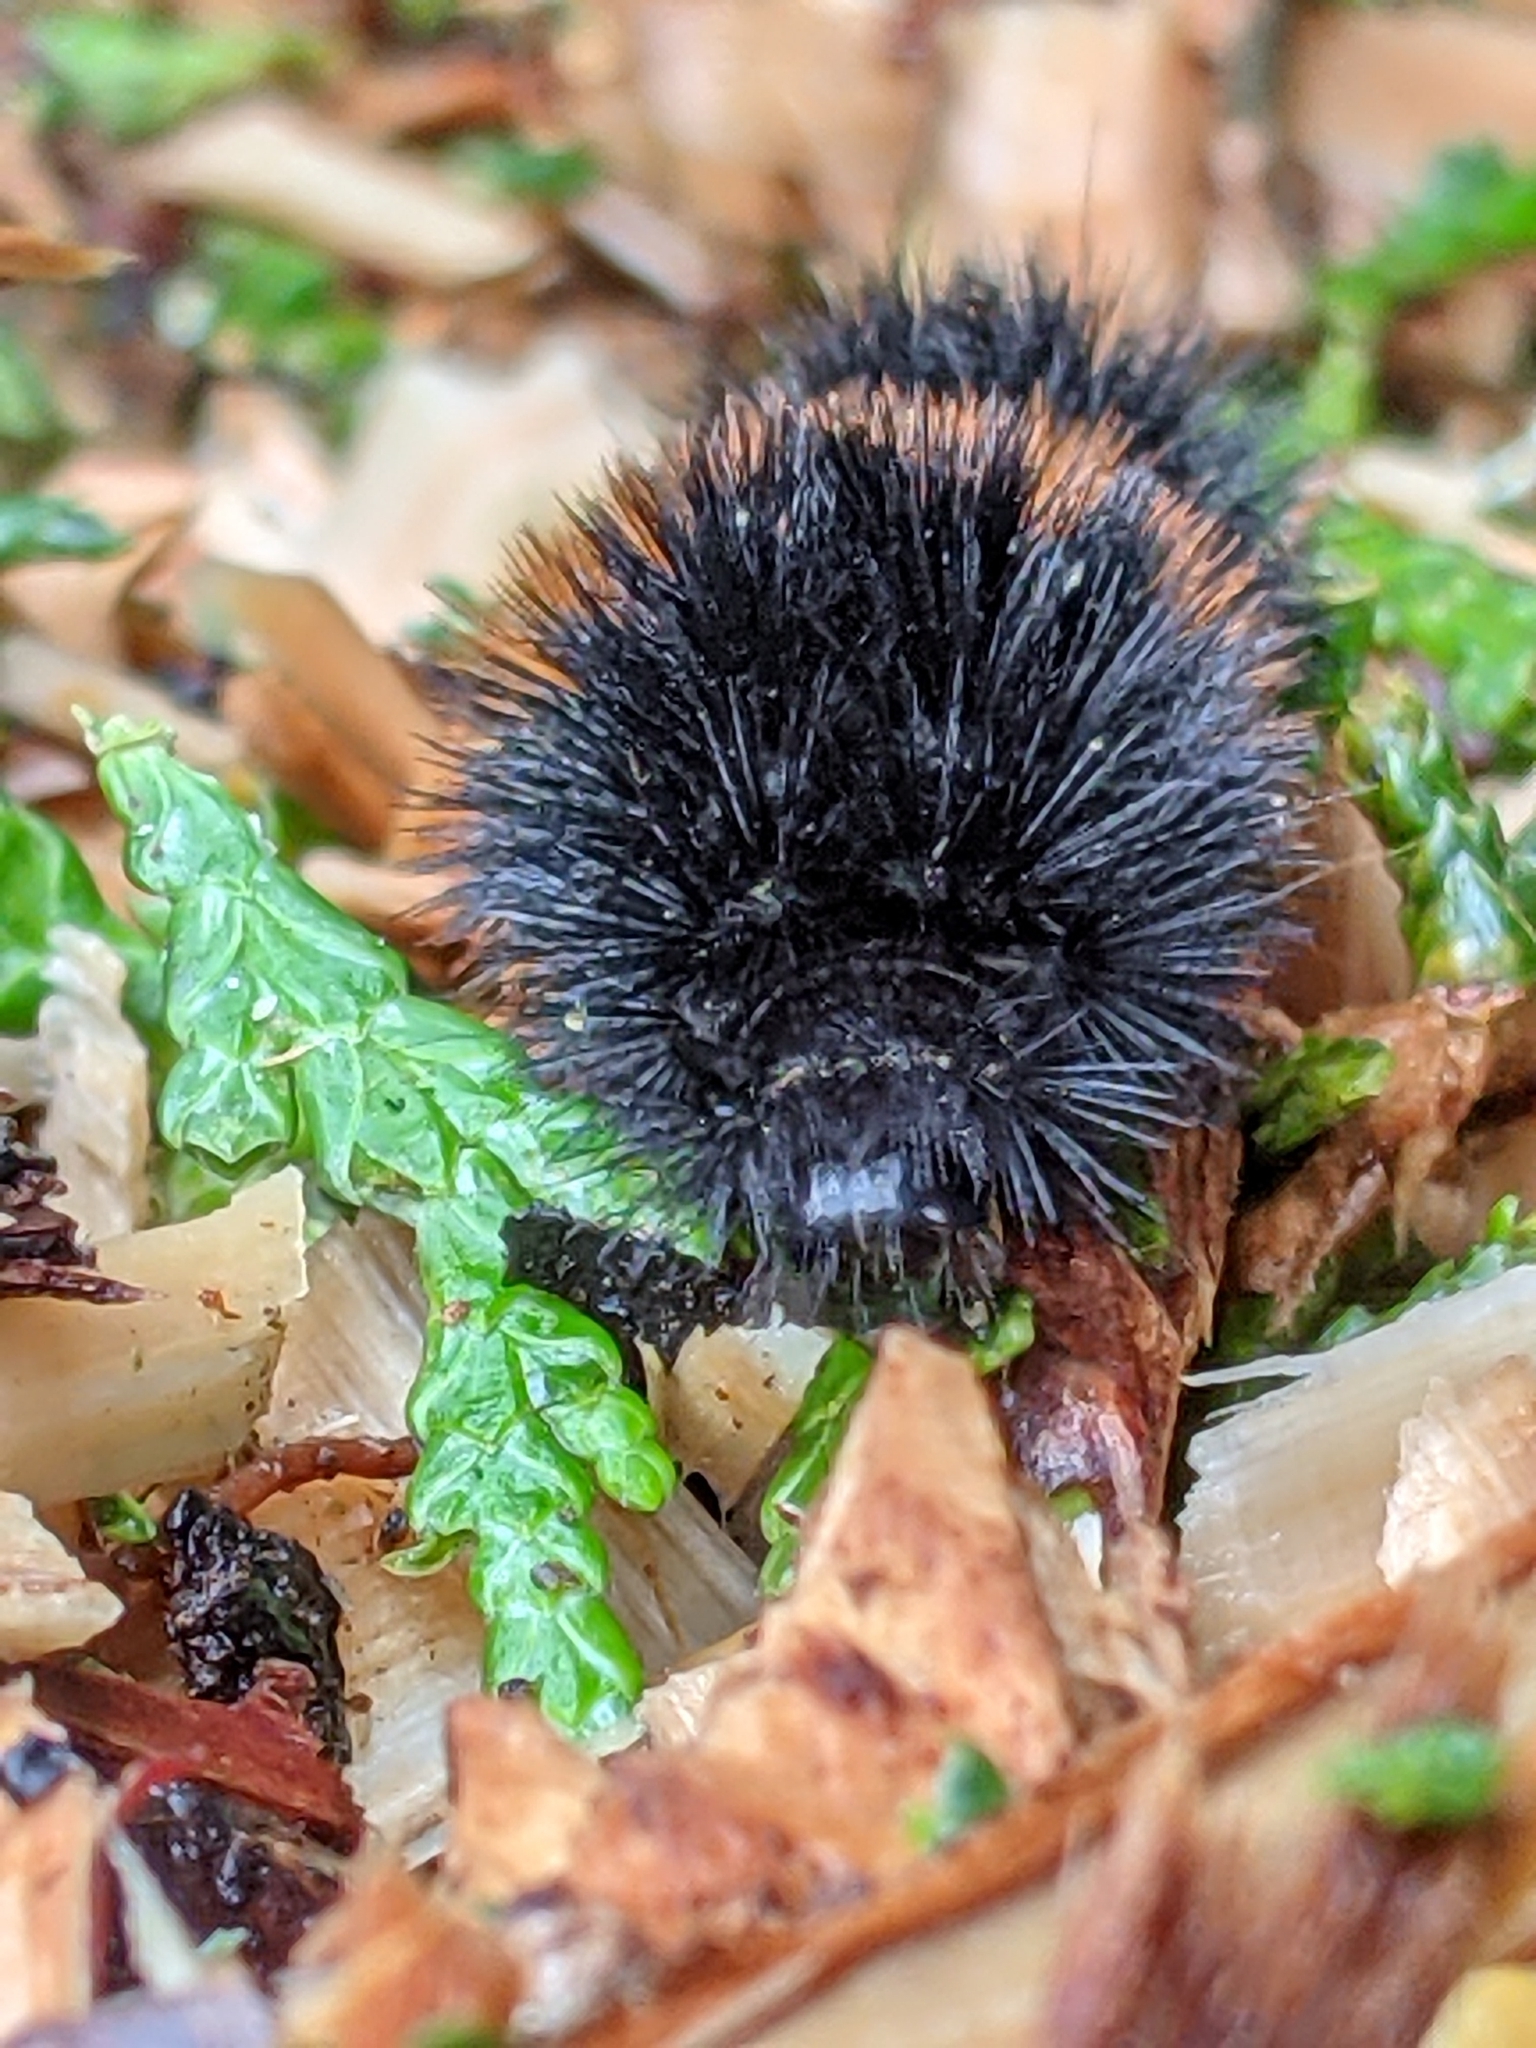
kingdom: Animalia
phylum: Arthropoda
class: Insecta
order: Lepidoptera
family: Erebidae
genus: Pyrrharctia
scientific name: Pyrrharctia isabella
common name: Isabella tiger moth
